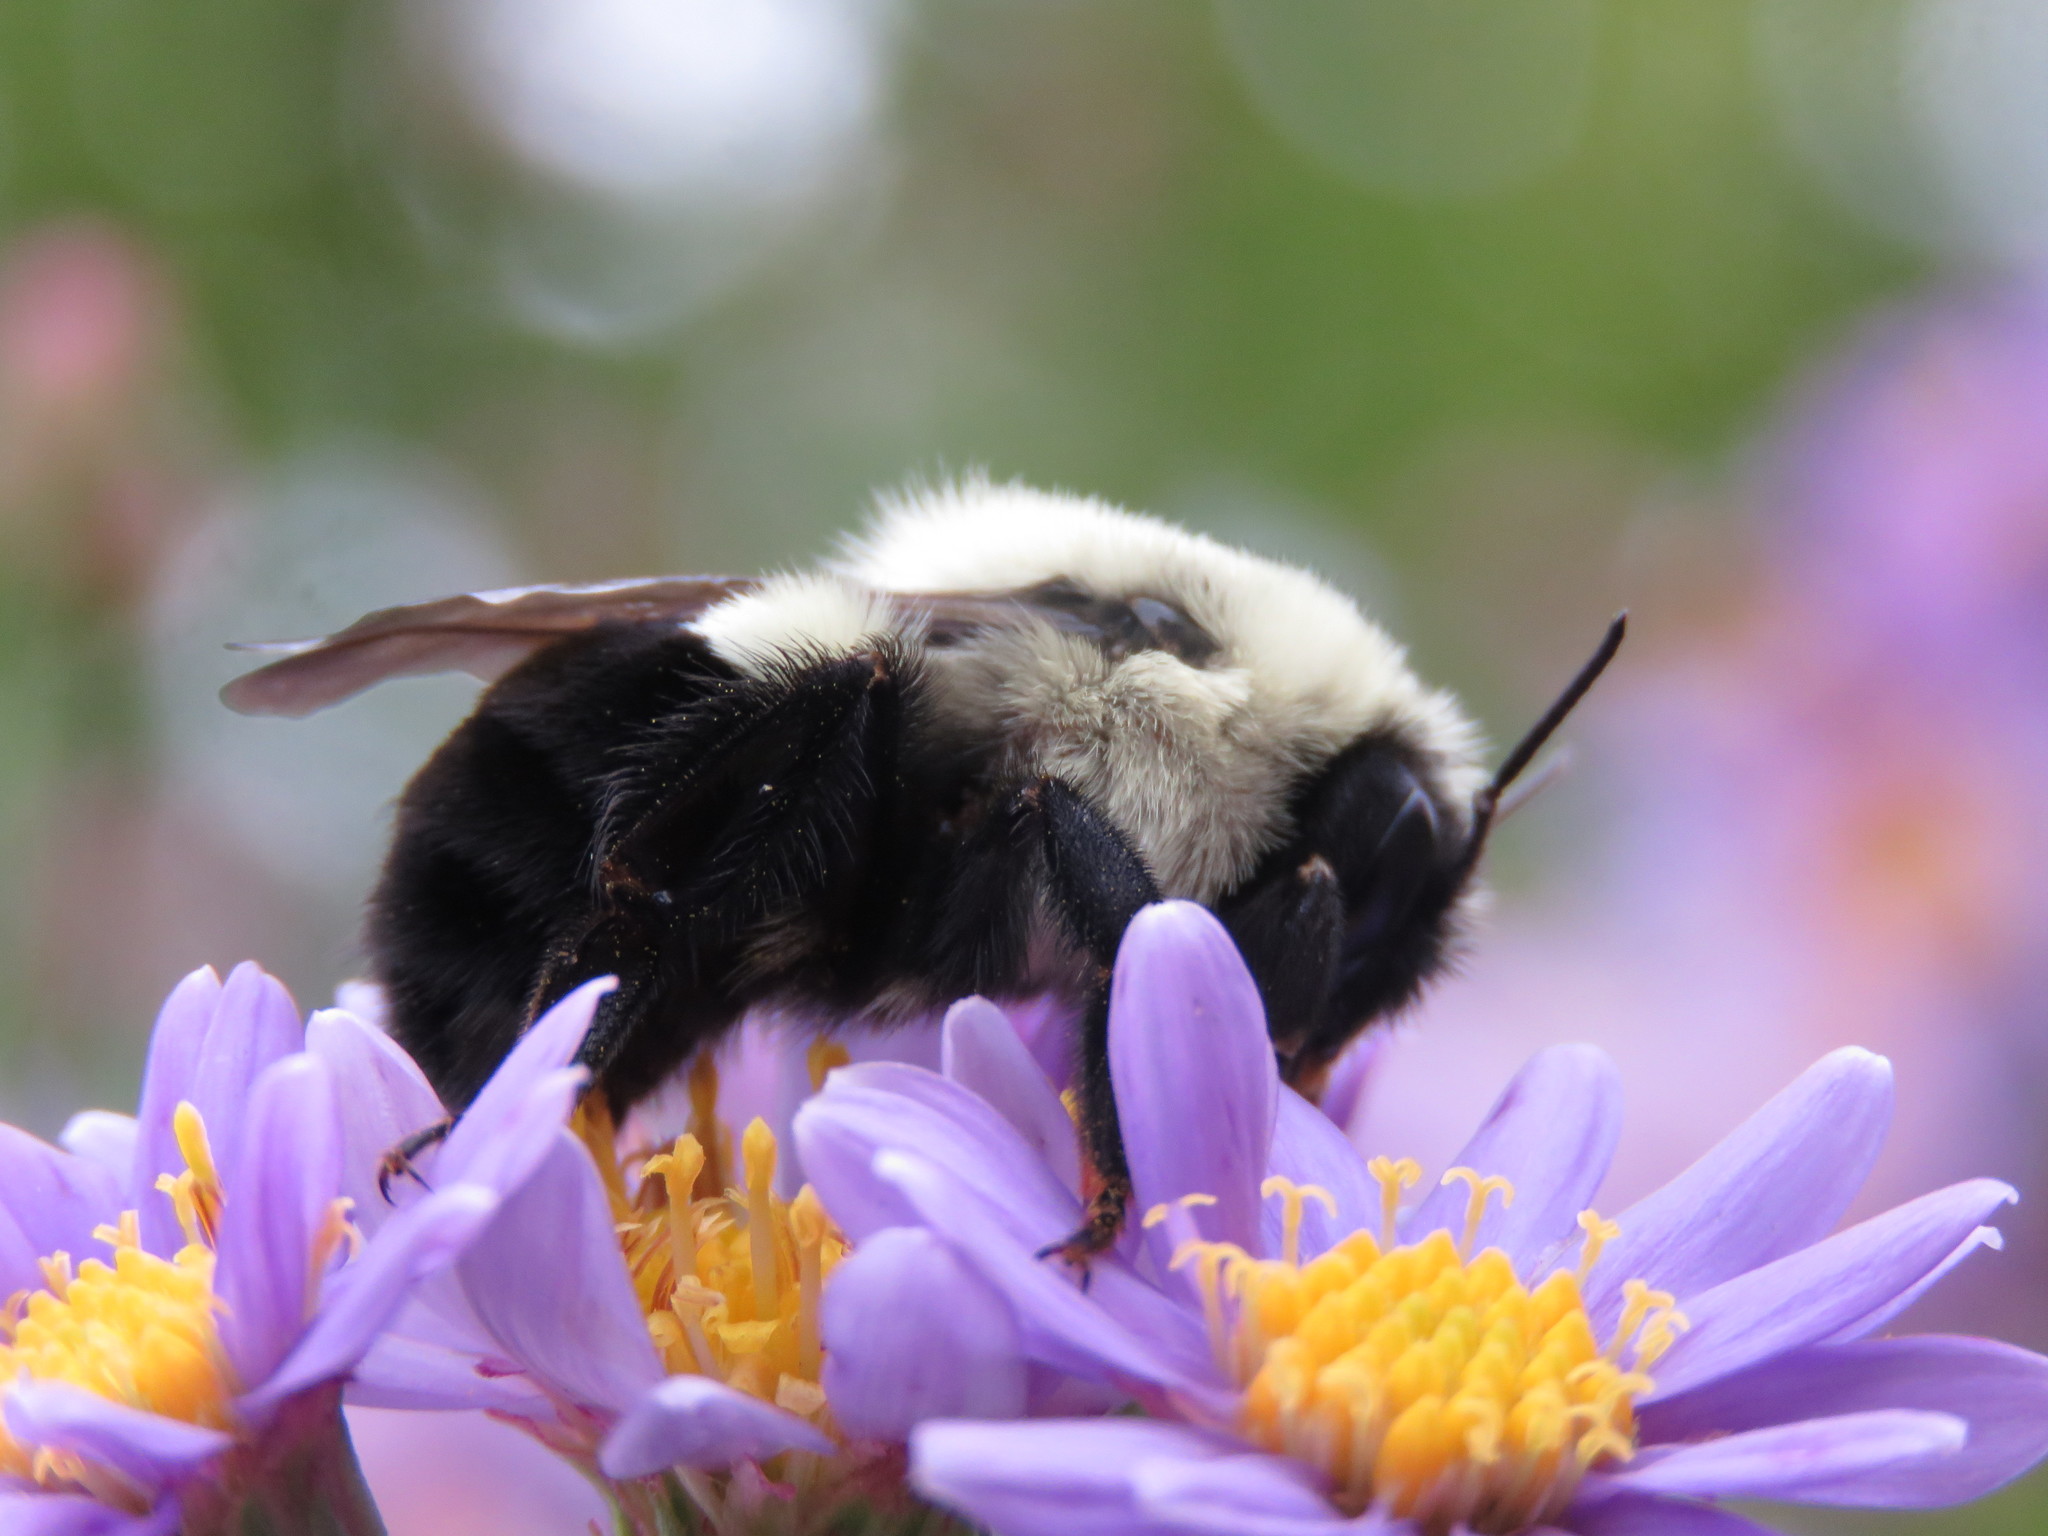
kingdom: Animalia
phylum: Arthropoda
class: Insecta
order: Hymenoptera
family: Apidae
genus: Bombus
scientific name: Bombus impatiens
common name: Common eastern bumble bee
